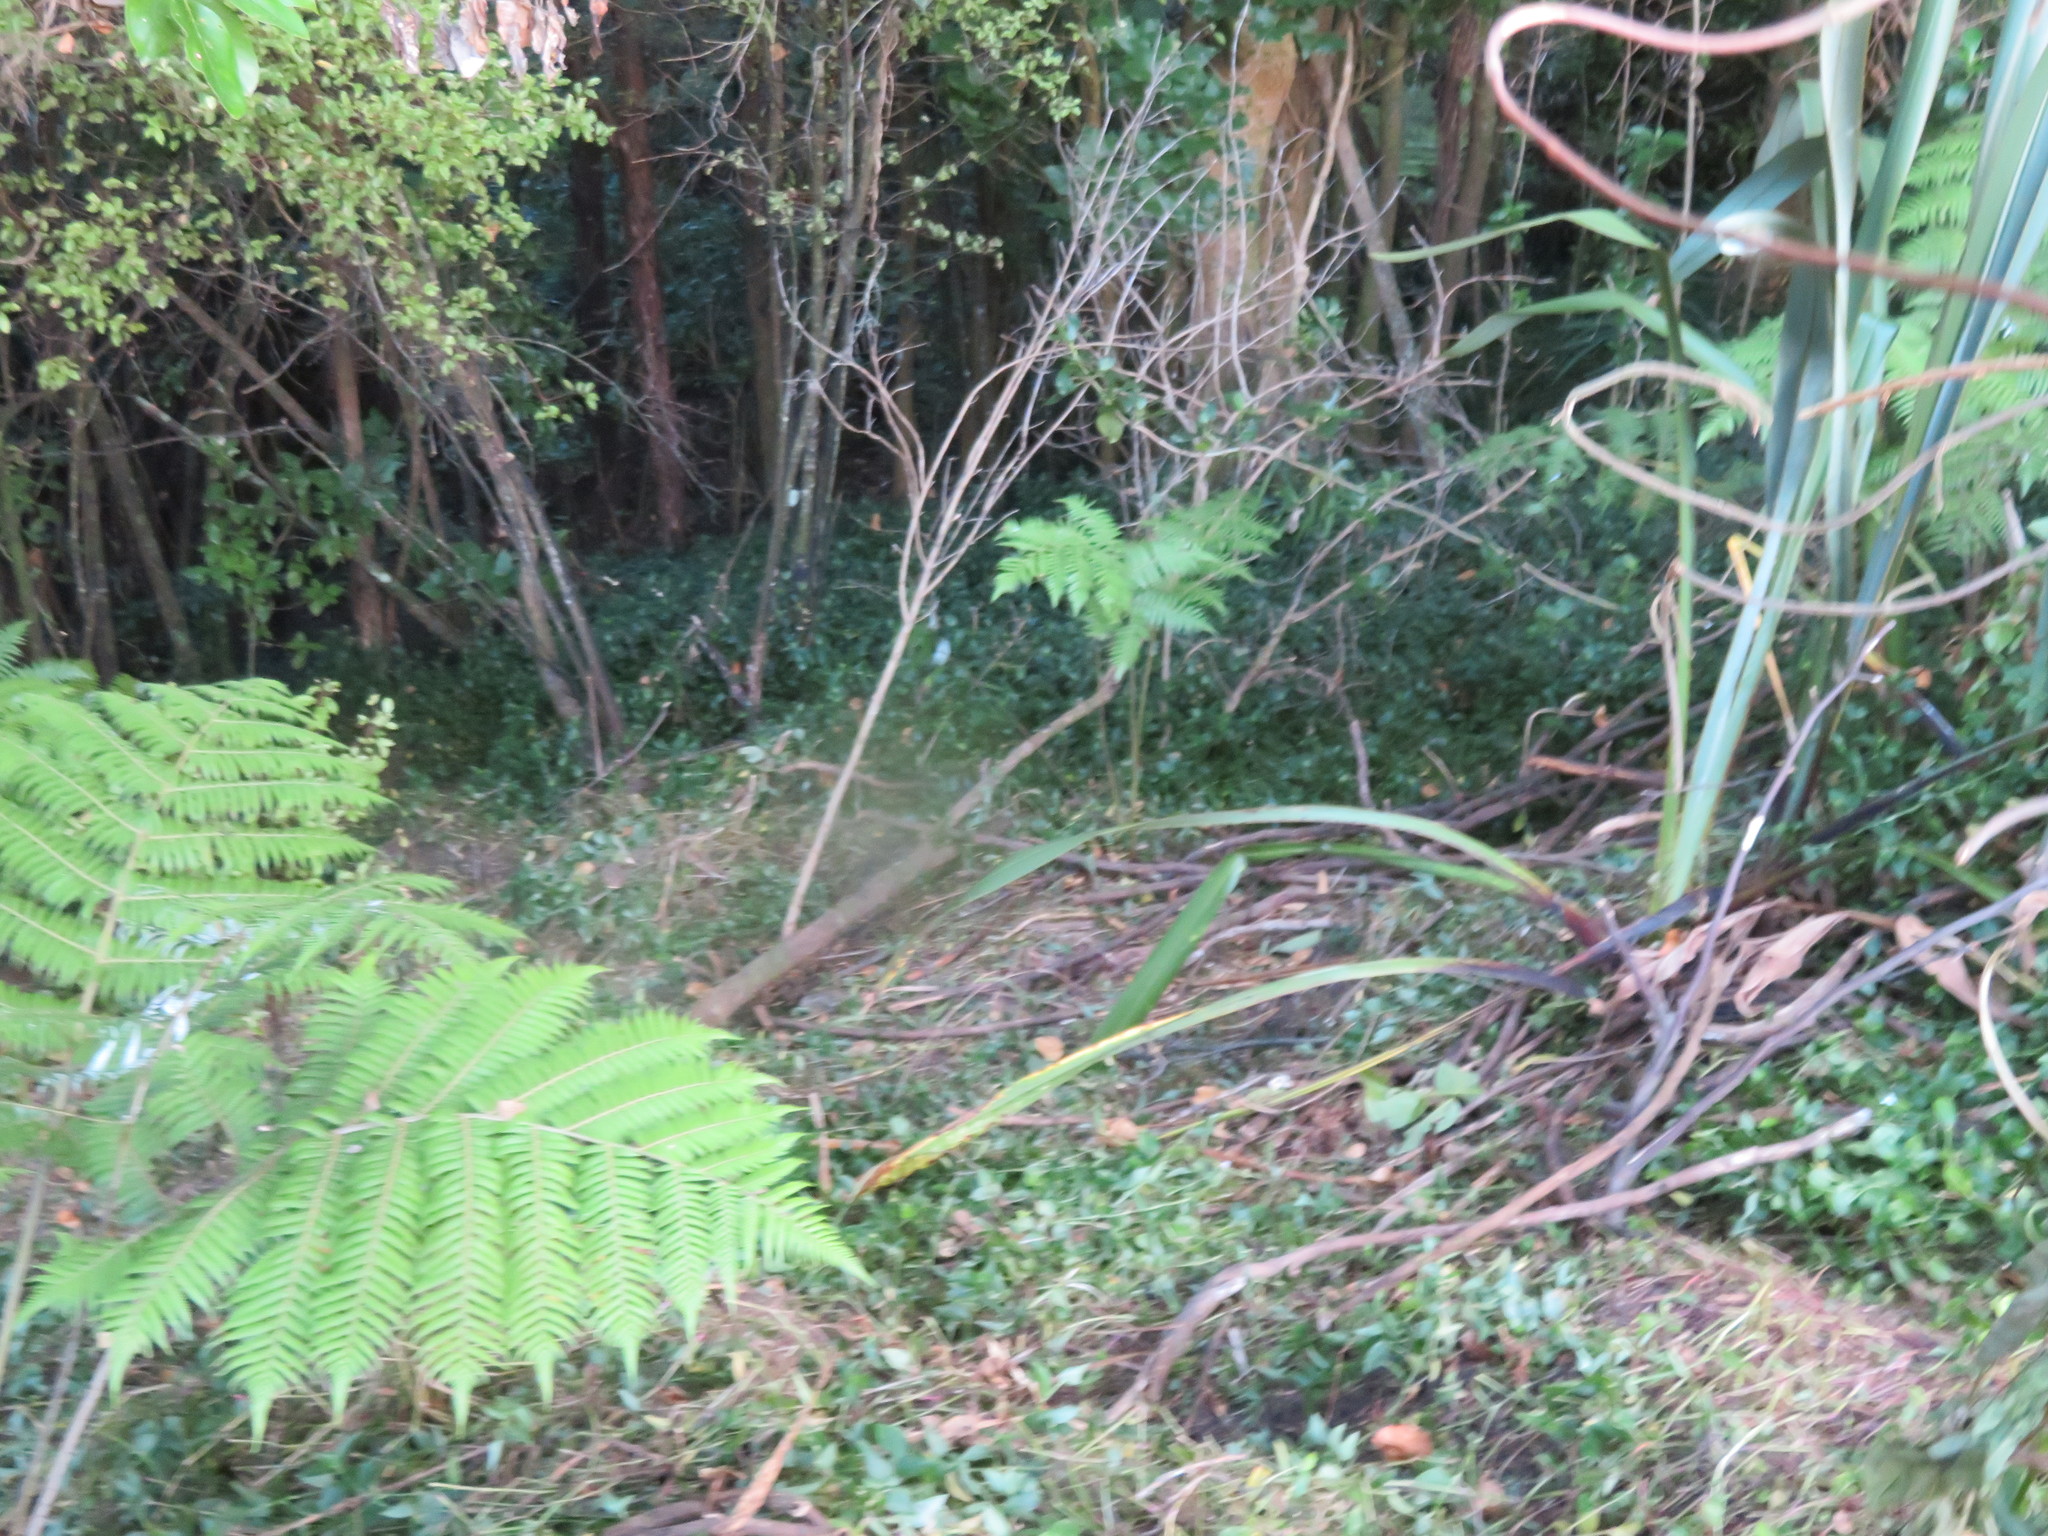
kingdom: Plantae
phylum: Tracheophyta
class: Liliopsida
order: Commelinales
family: Commelinaceae
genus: Tradescantia
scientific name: Tradescantia fluminensis
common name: Wandering-jew
